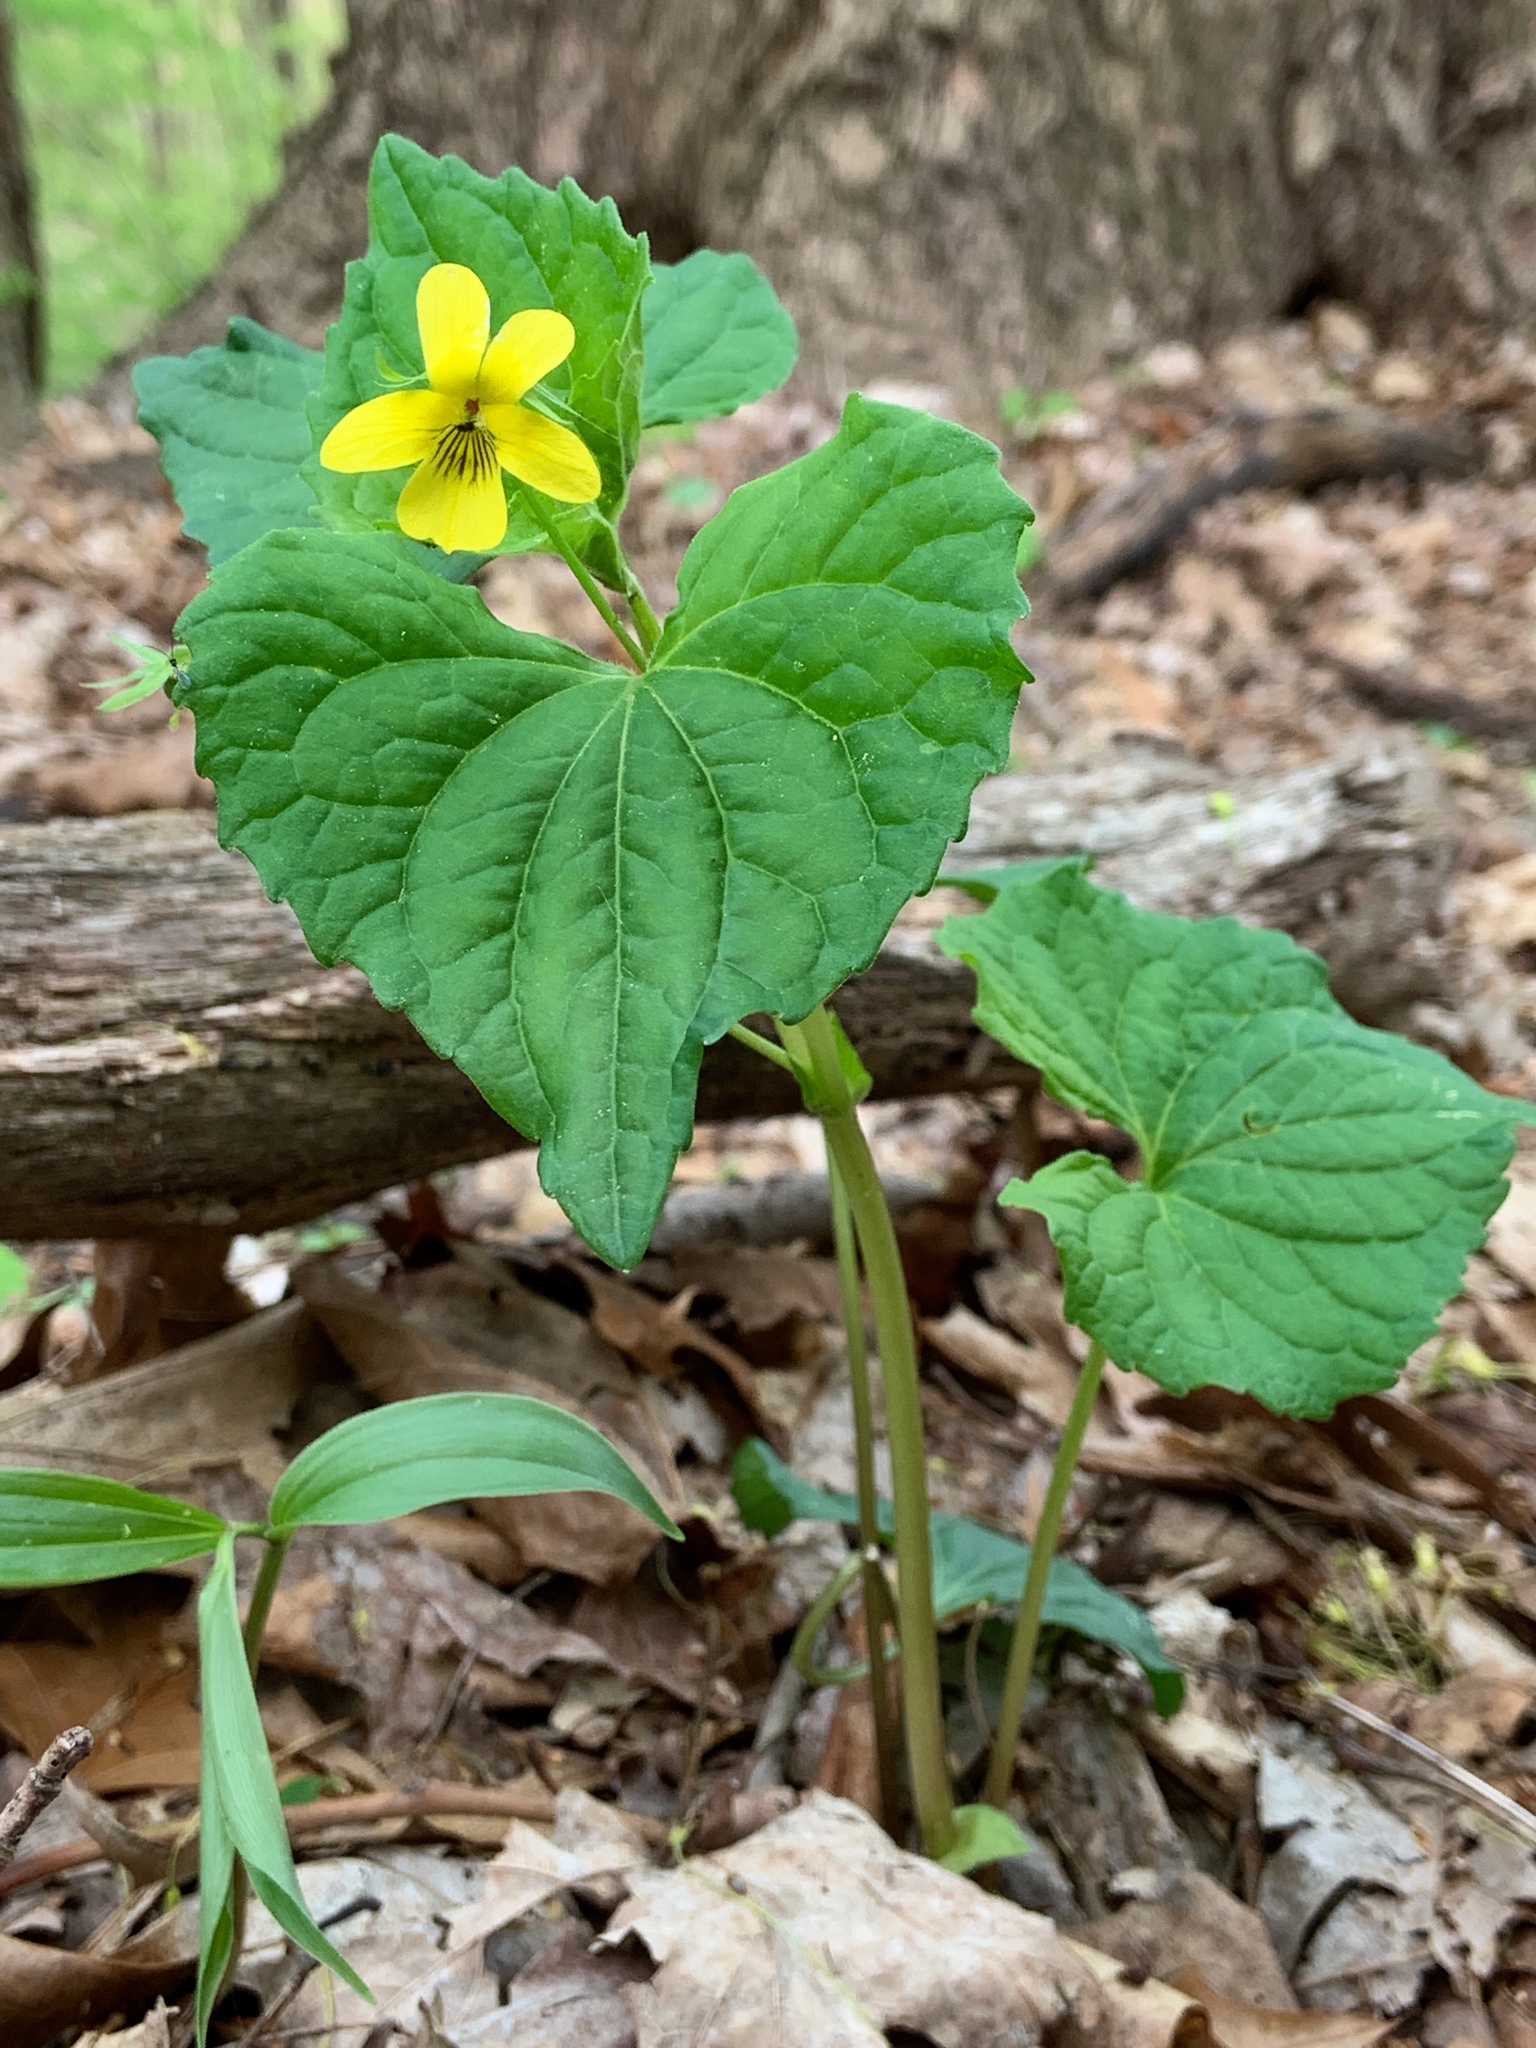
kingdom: Plantae
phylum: Tracheophyta
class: Magnoliopsida
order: Malpighiales
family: Violaceae
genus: Viola
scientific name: Viola eriocarpa
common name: Smooth yellow violet
